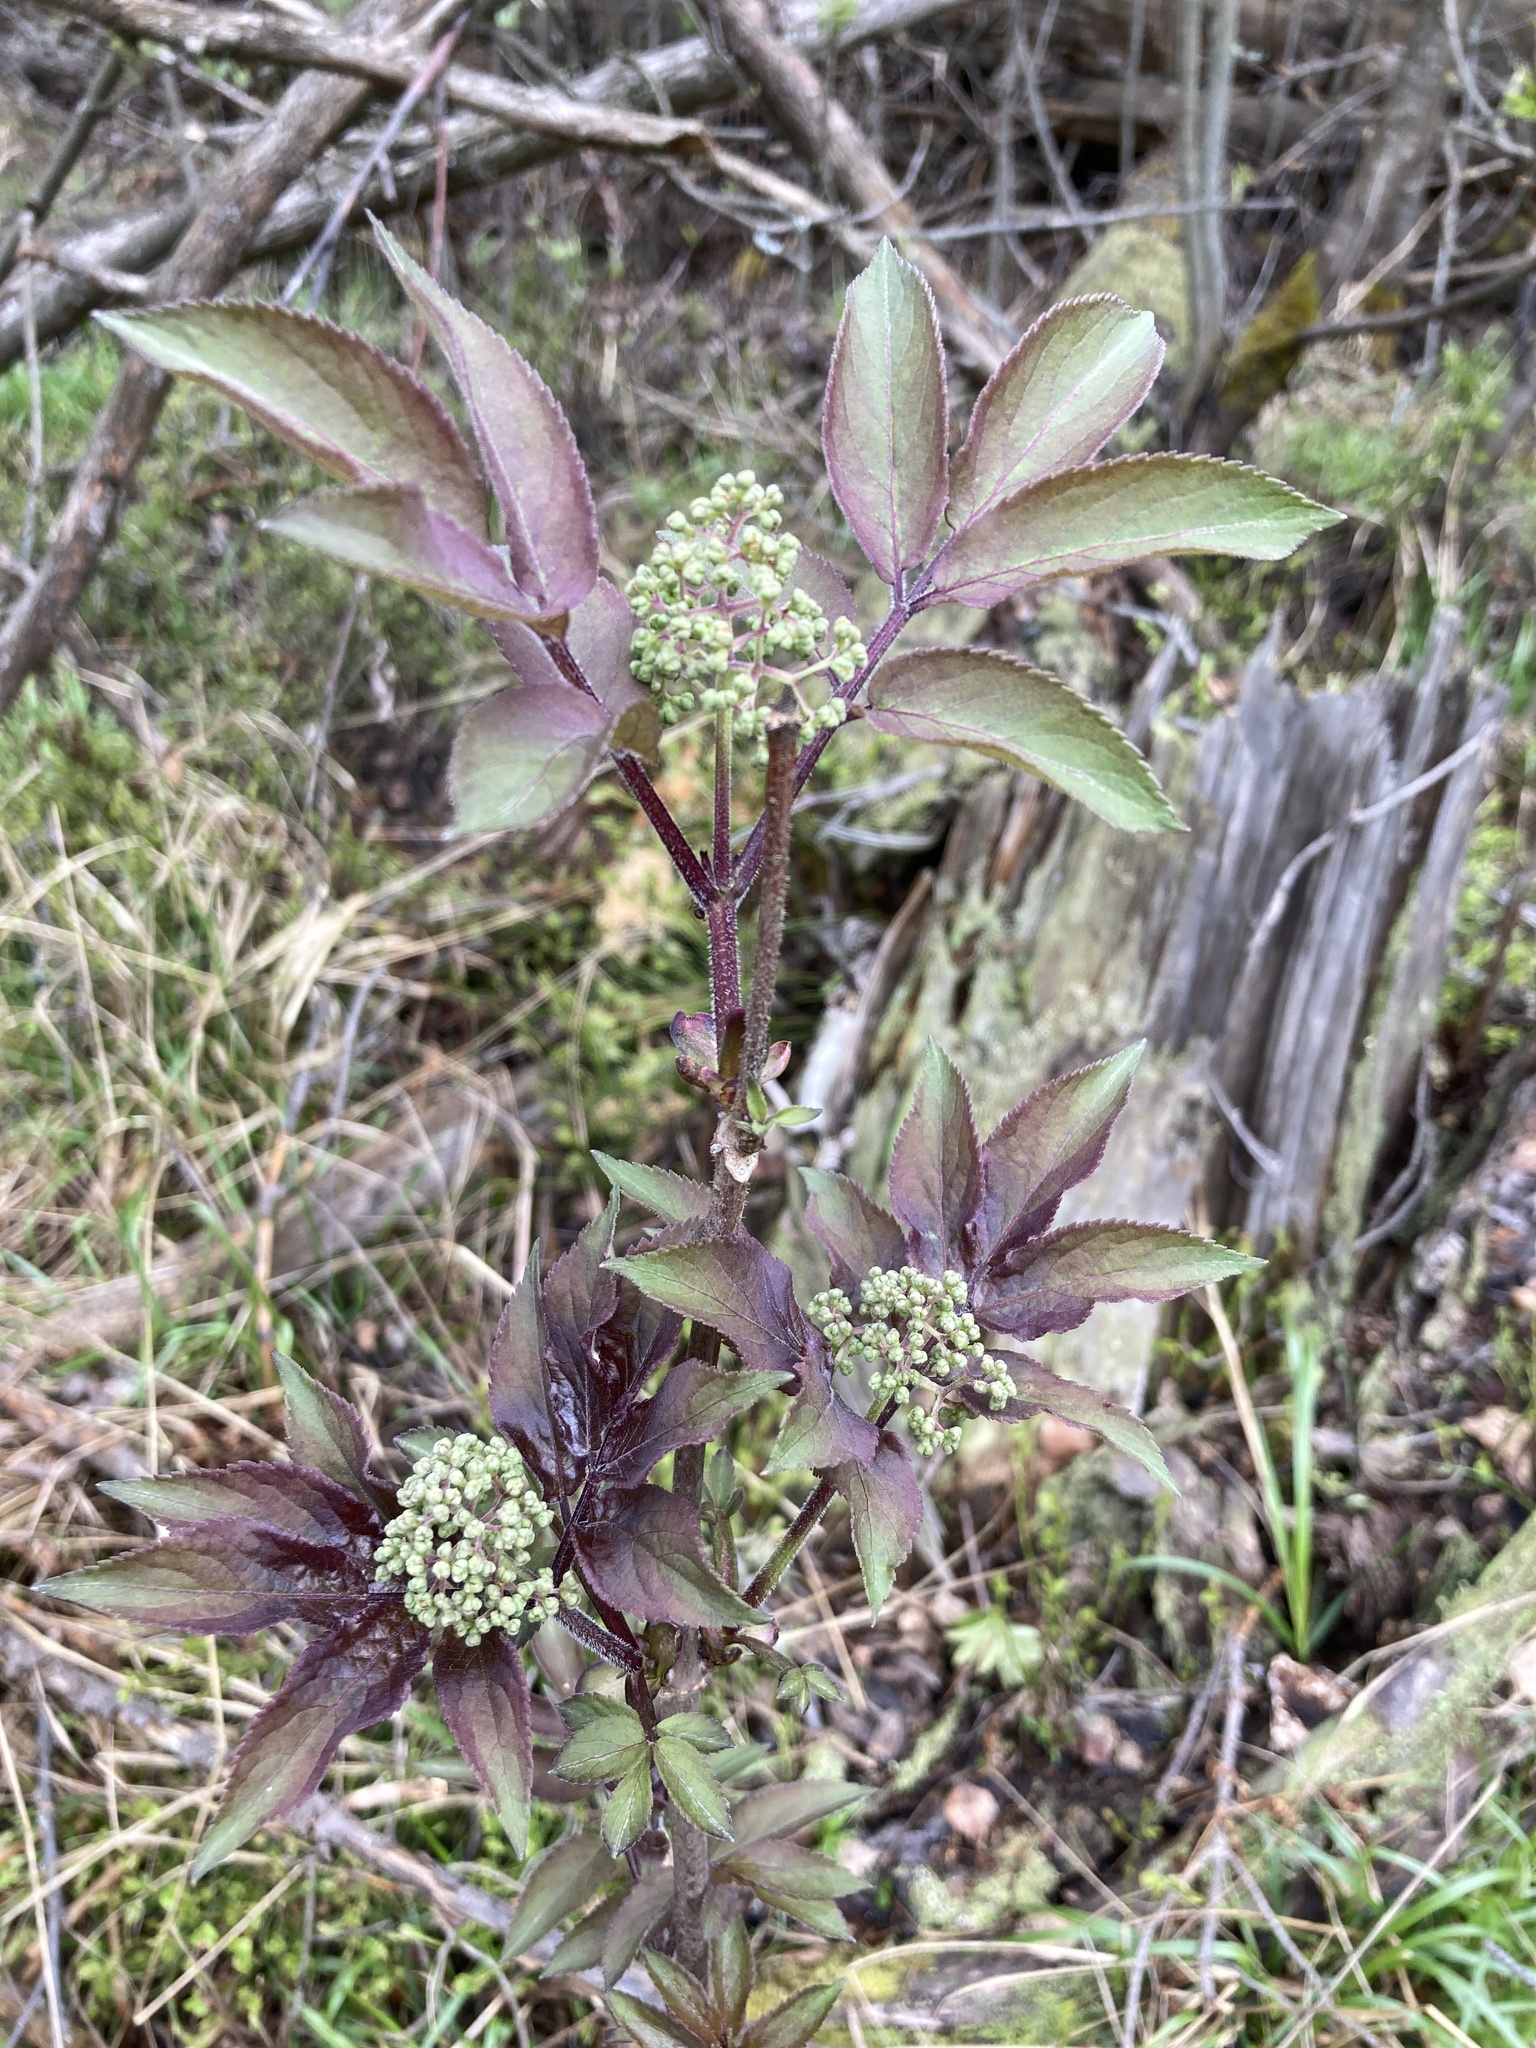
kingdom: Plantae
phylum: Tracheophyta
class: Magnoliopsida
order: Dipsacales
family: Viburnaceae
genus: Sambucus
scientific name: Sambucus racemosa
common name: Red-berried elder
